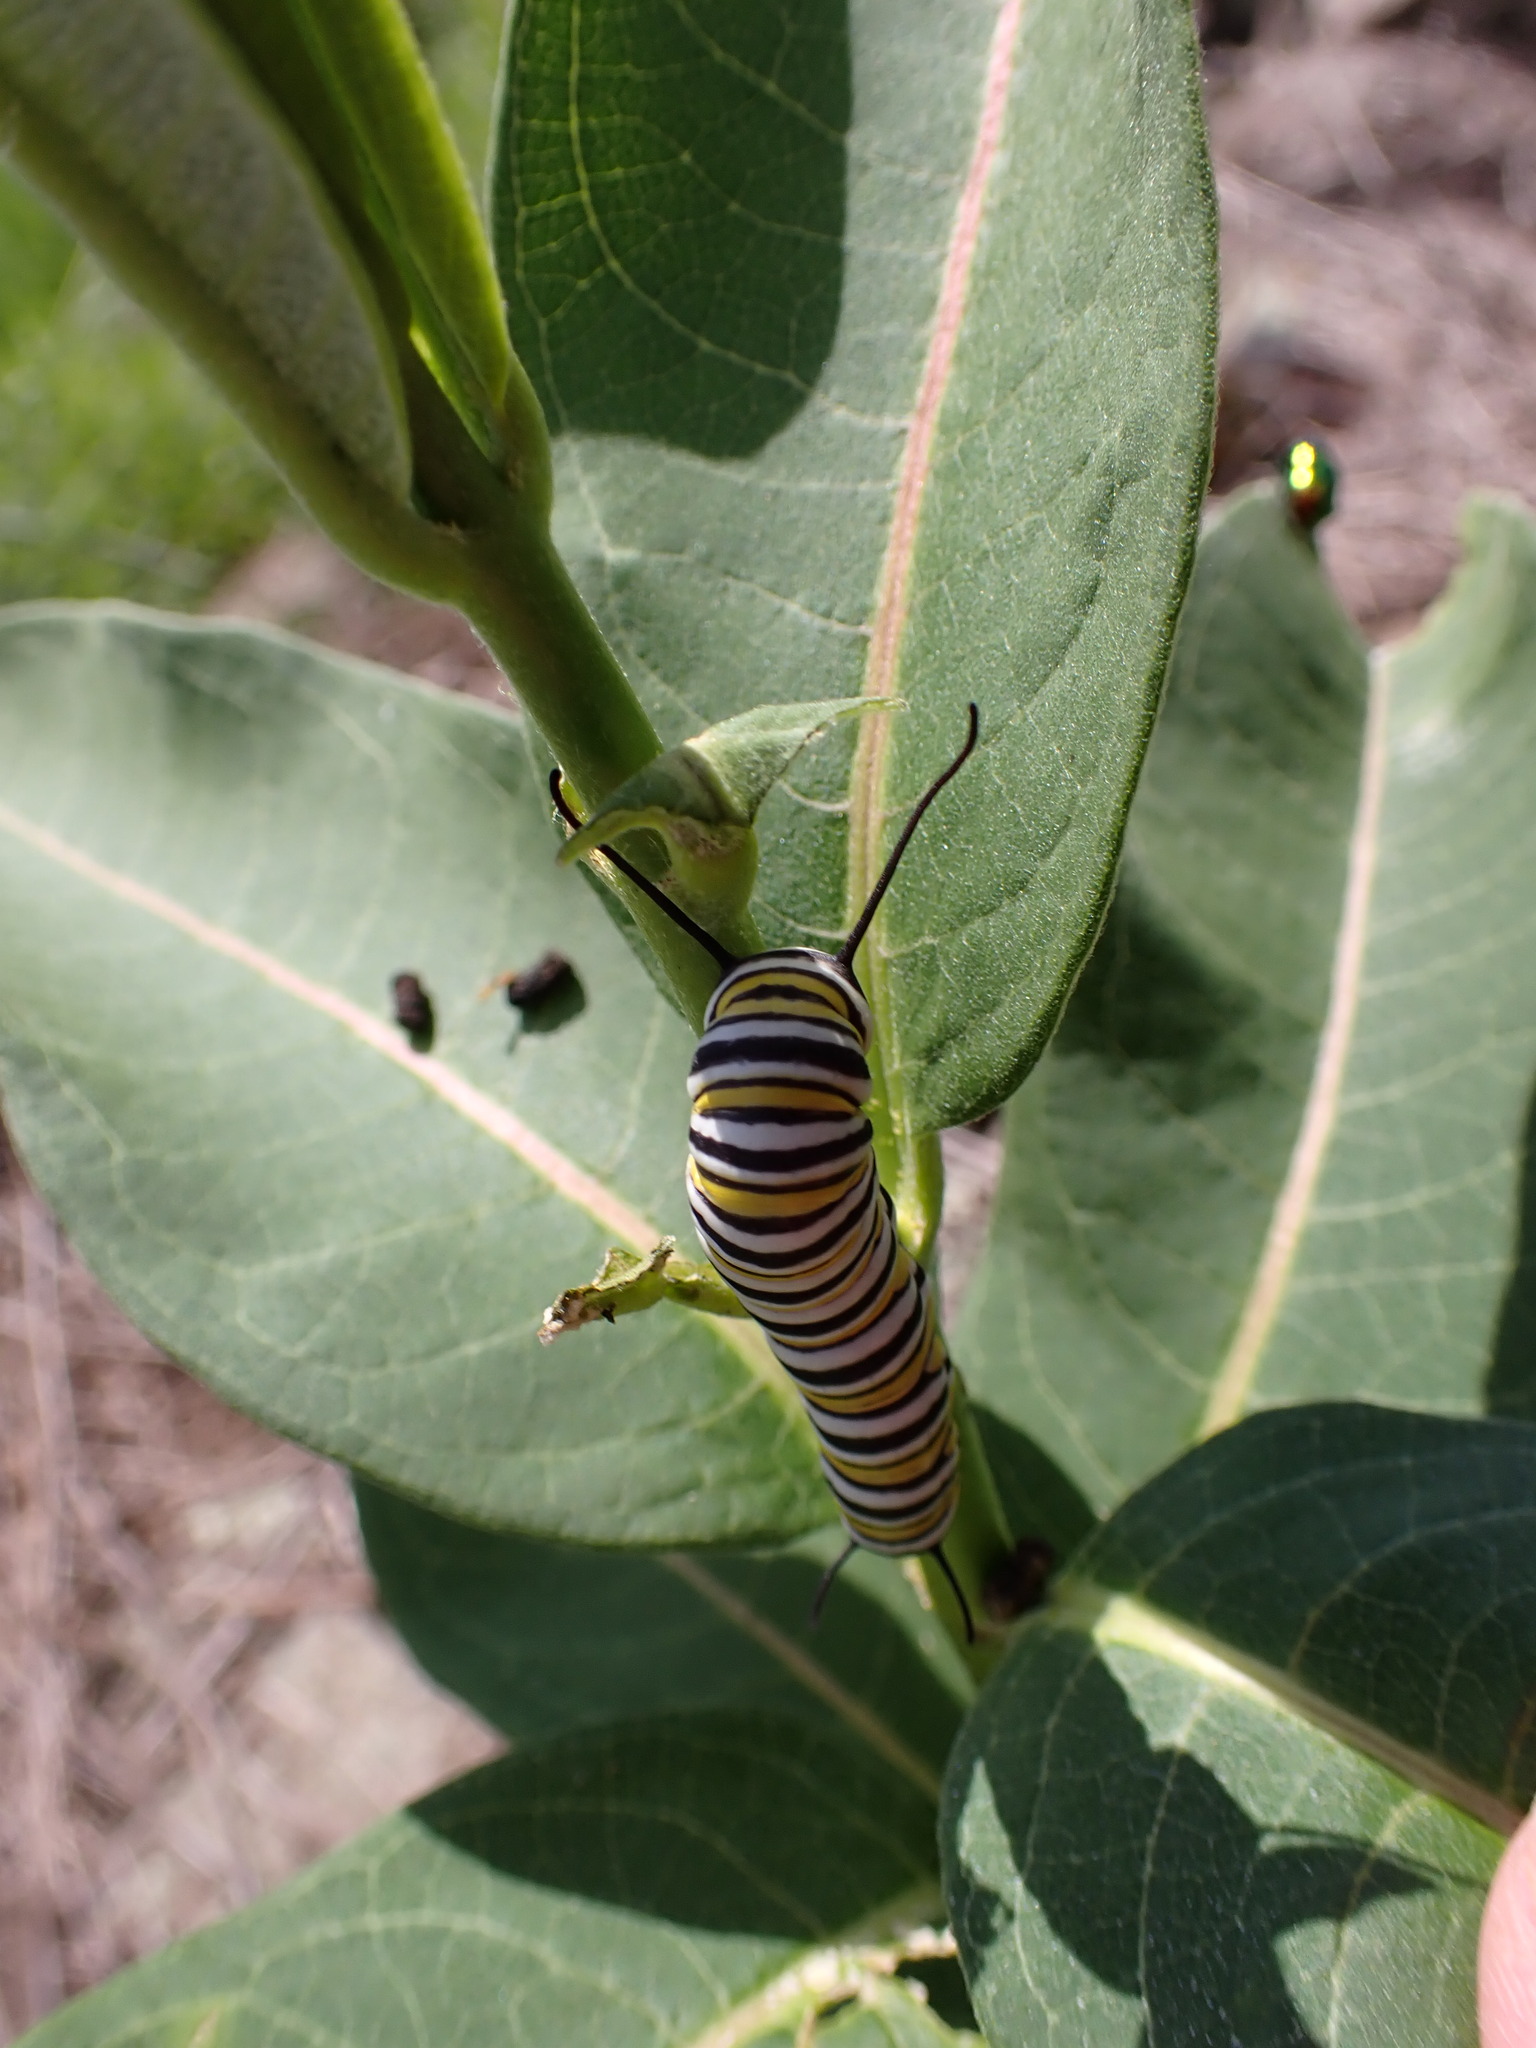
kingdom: Animalia
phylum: Arthropoda
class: Insecta
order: Lepidoptera
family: Nymphalidae
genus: Danaus
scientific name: Danaus plexippus
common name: Monarch
